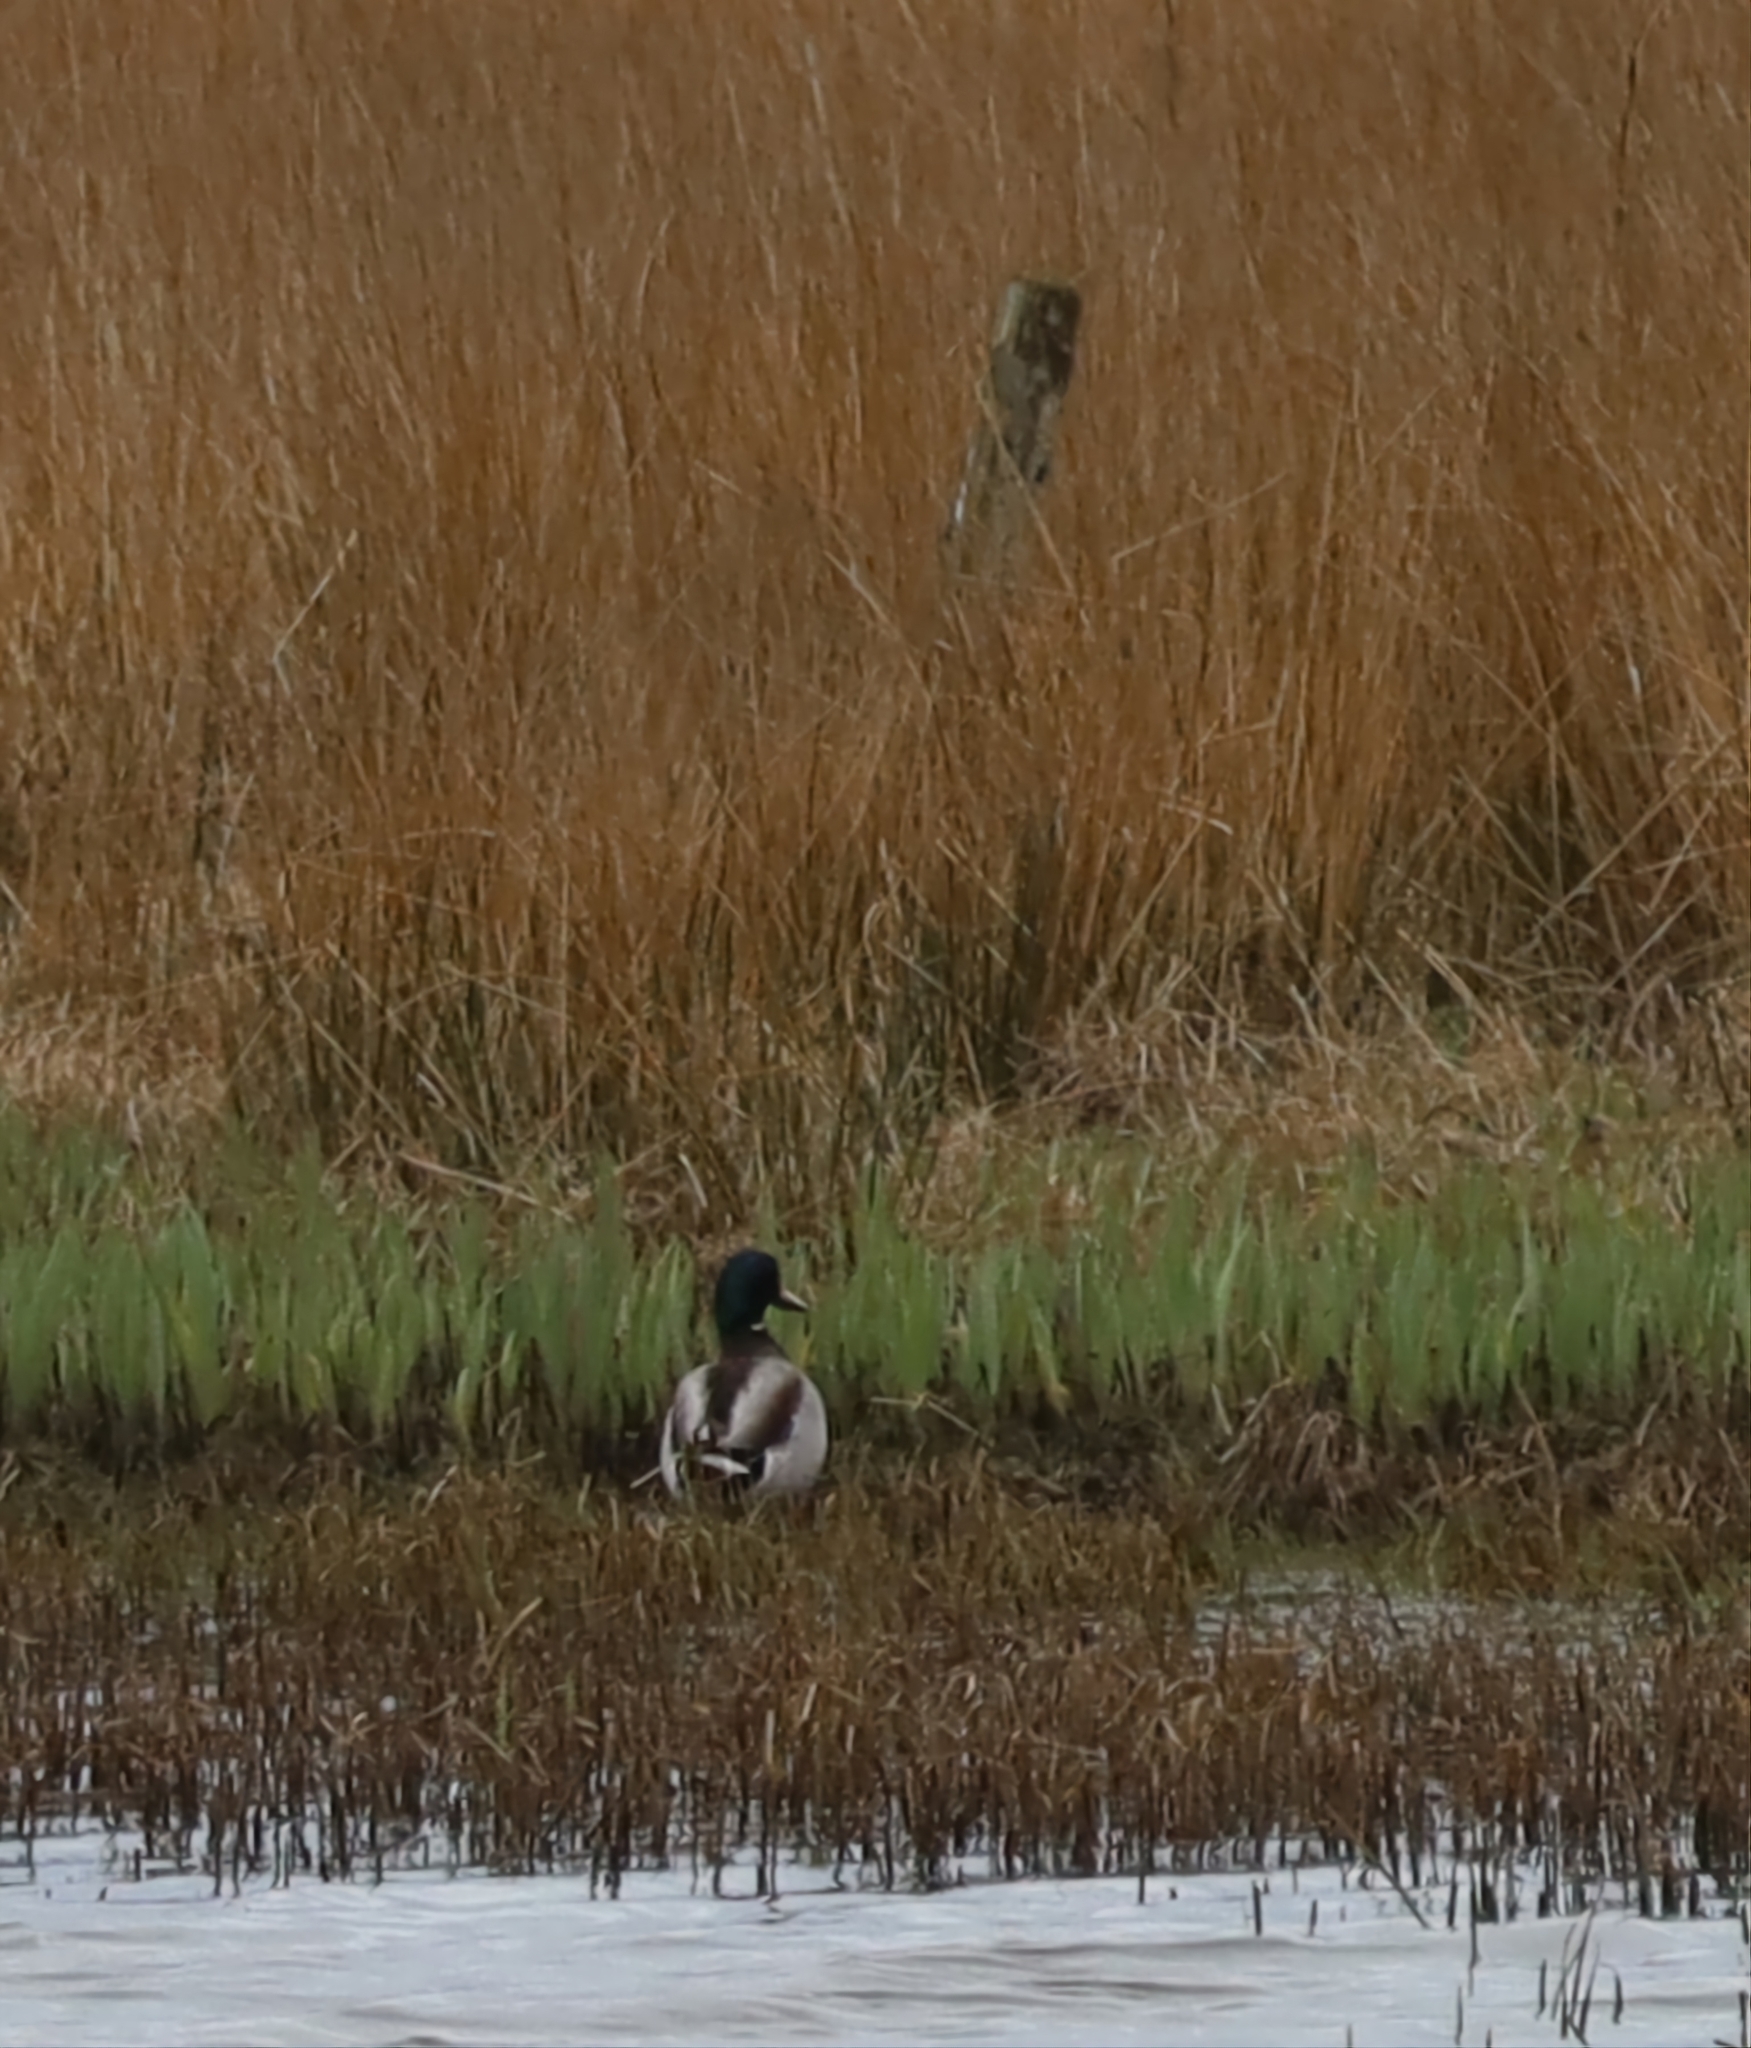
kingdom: Animalia
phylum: Chordata
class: Aves
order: Anseriformes
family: Anatidae
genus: Anas
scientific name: Anas platyrhynchos
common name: Mallard
